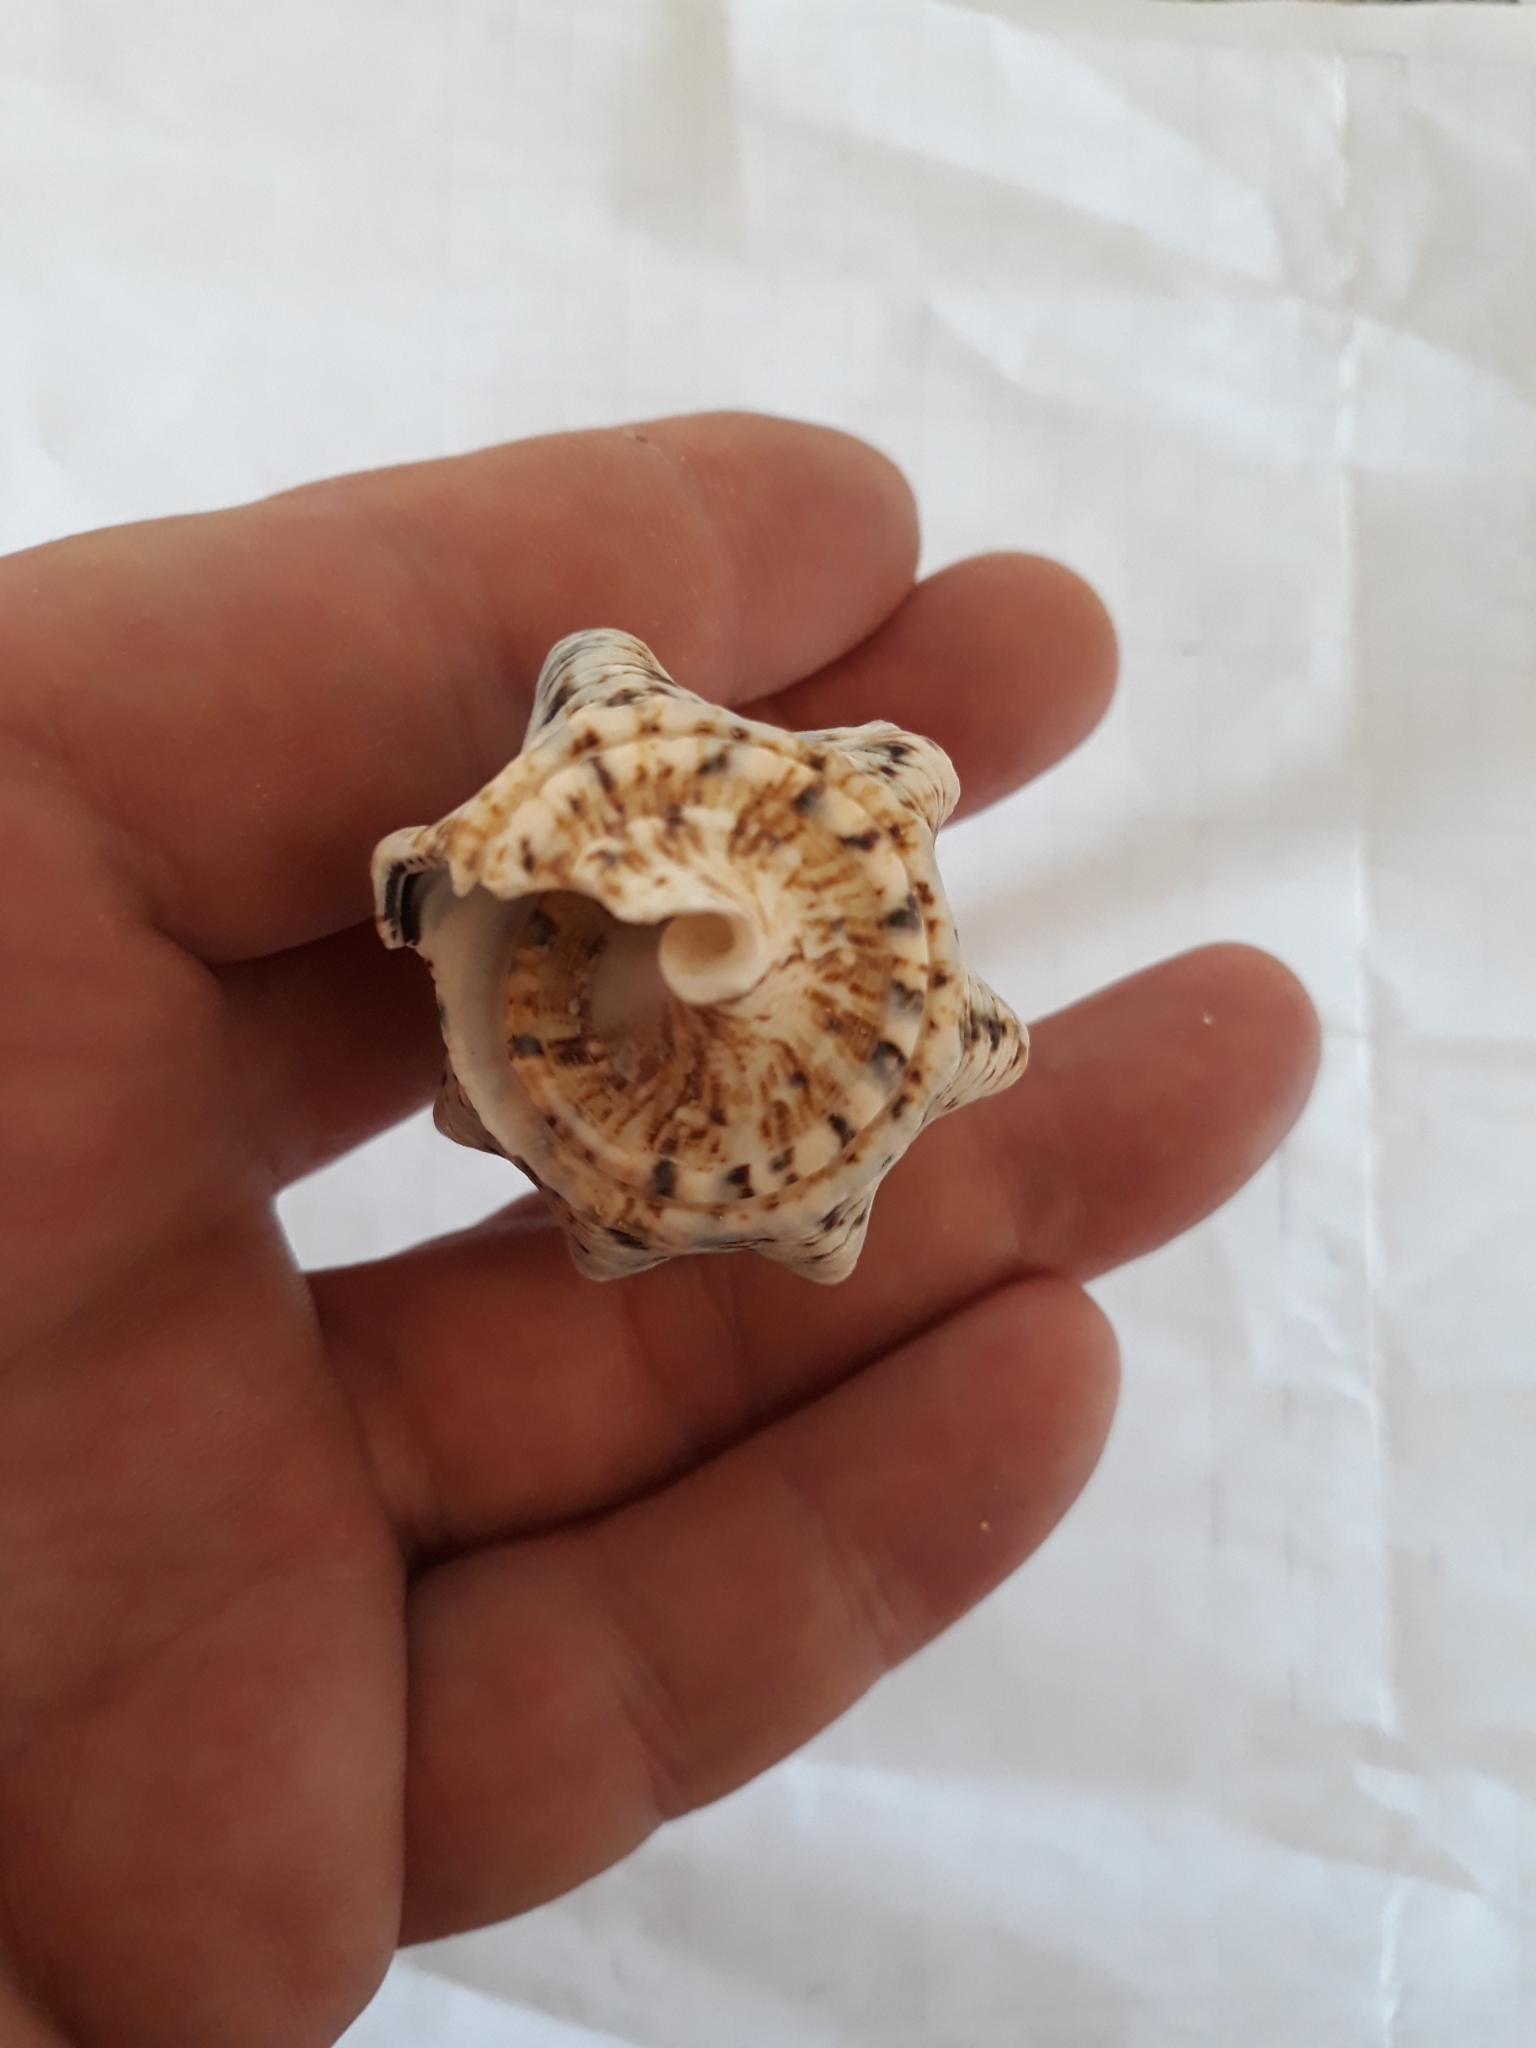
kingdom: Animalia
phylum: Mollusca
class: Gastropoda
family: Cerithiidae
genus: Cerithium
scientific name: Cerithium nodulosum
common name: Nadelschnecke giant knobbed cerith
